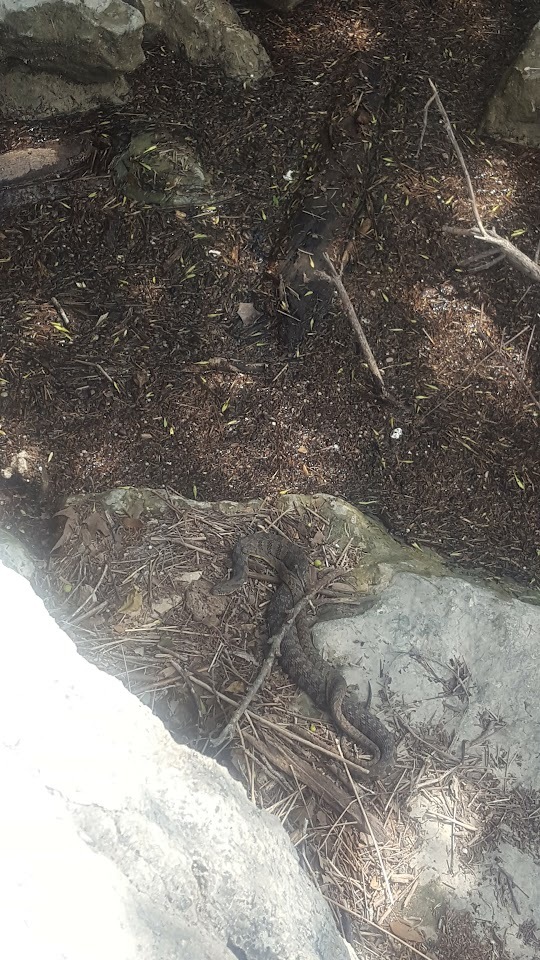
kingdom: Animalia
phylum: Chordata
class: Squamata
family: Colubridae
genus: Nerodia
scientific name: Nerodia rhombifer
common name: Diamondback water snake
